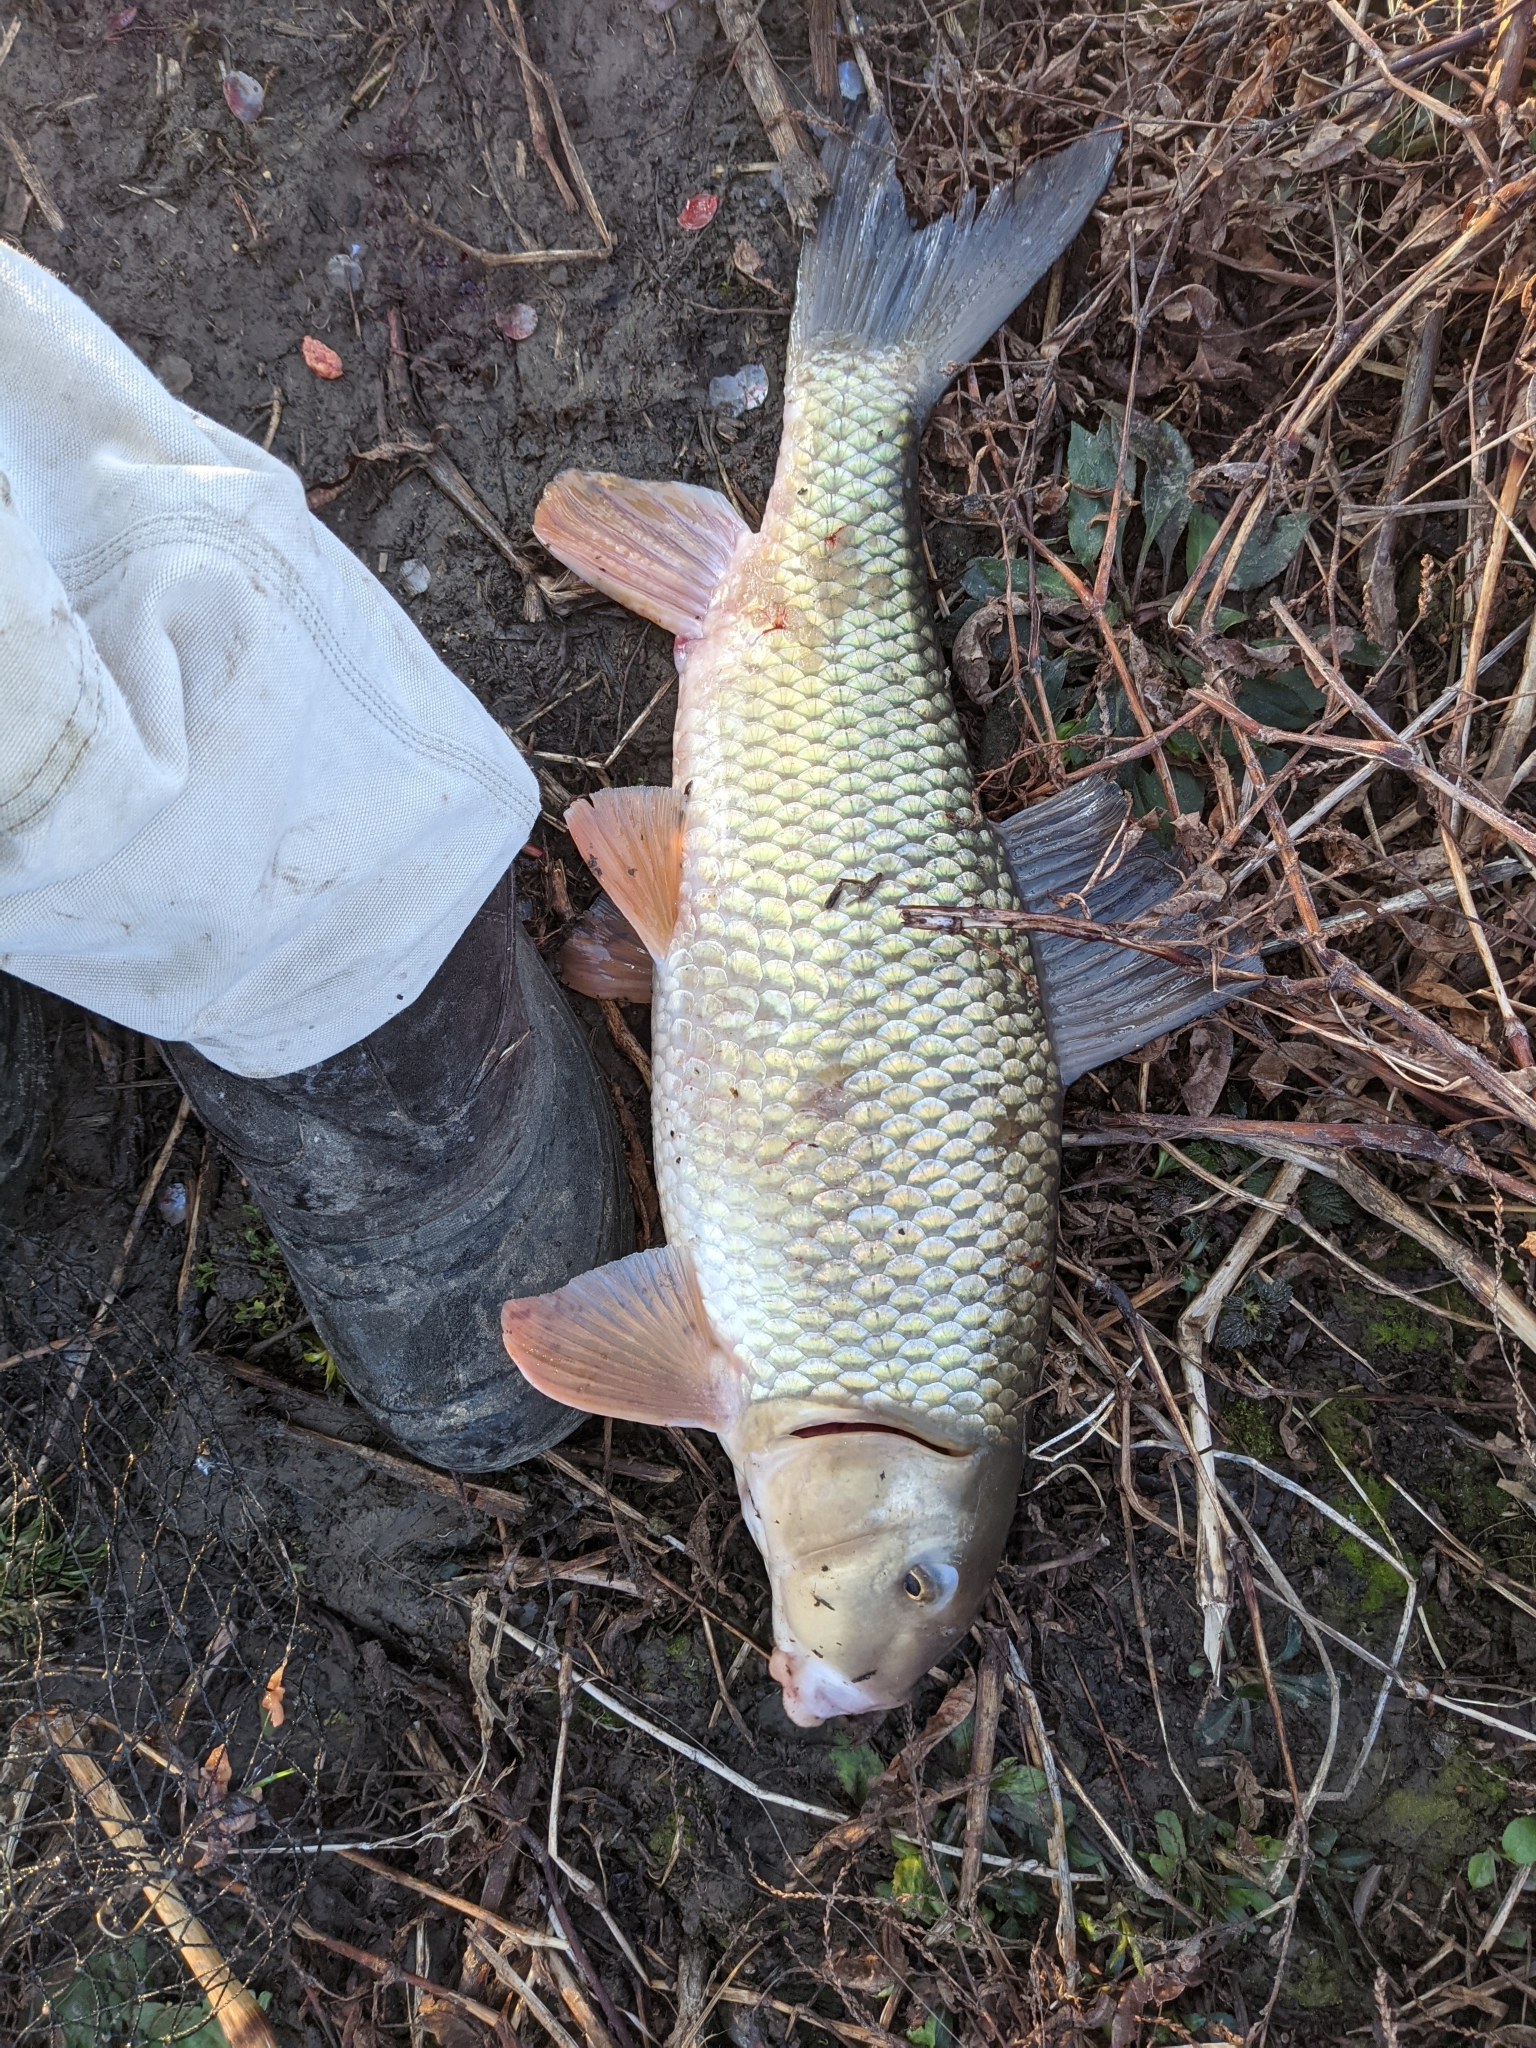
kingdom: Animalia
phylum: Chordata
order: Cypriniformes
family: Catostomidae
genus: Moxostoma
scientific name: Moxostoma anisurum
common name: Silver redhorse
